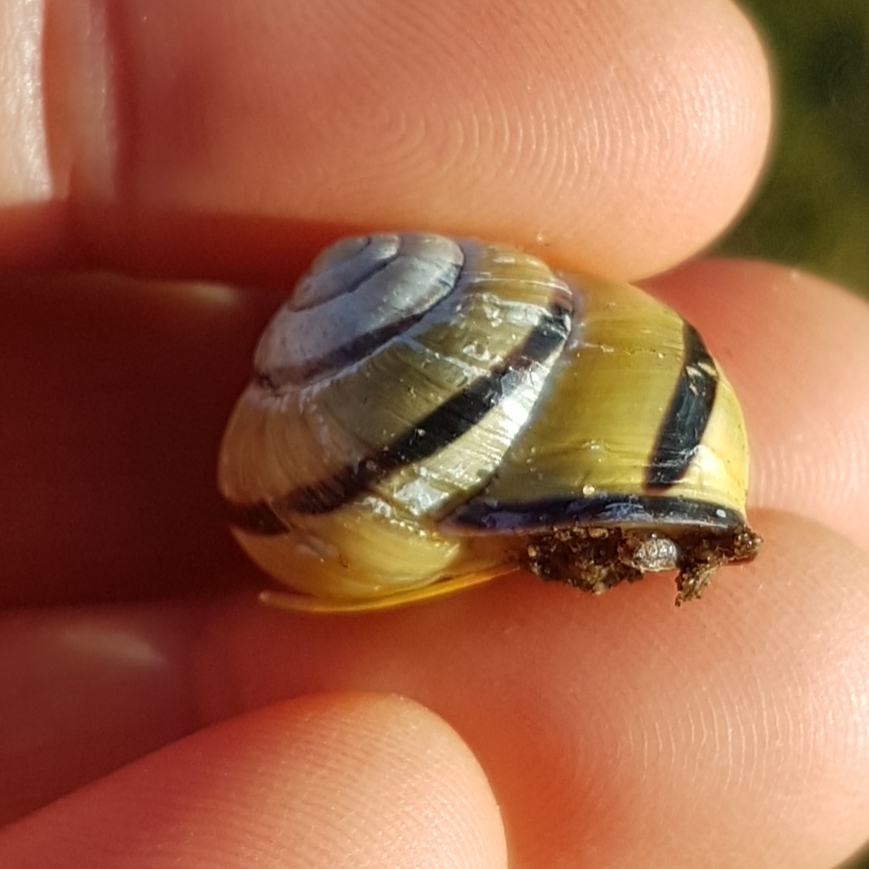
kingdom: Animalia
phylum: Mollusca
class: Gastropoda
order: Stylommatophora
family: Helicidae
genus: Cepaea
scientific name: Cepaea nemoralis
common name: Grovesnail
